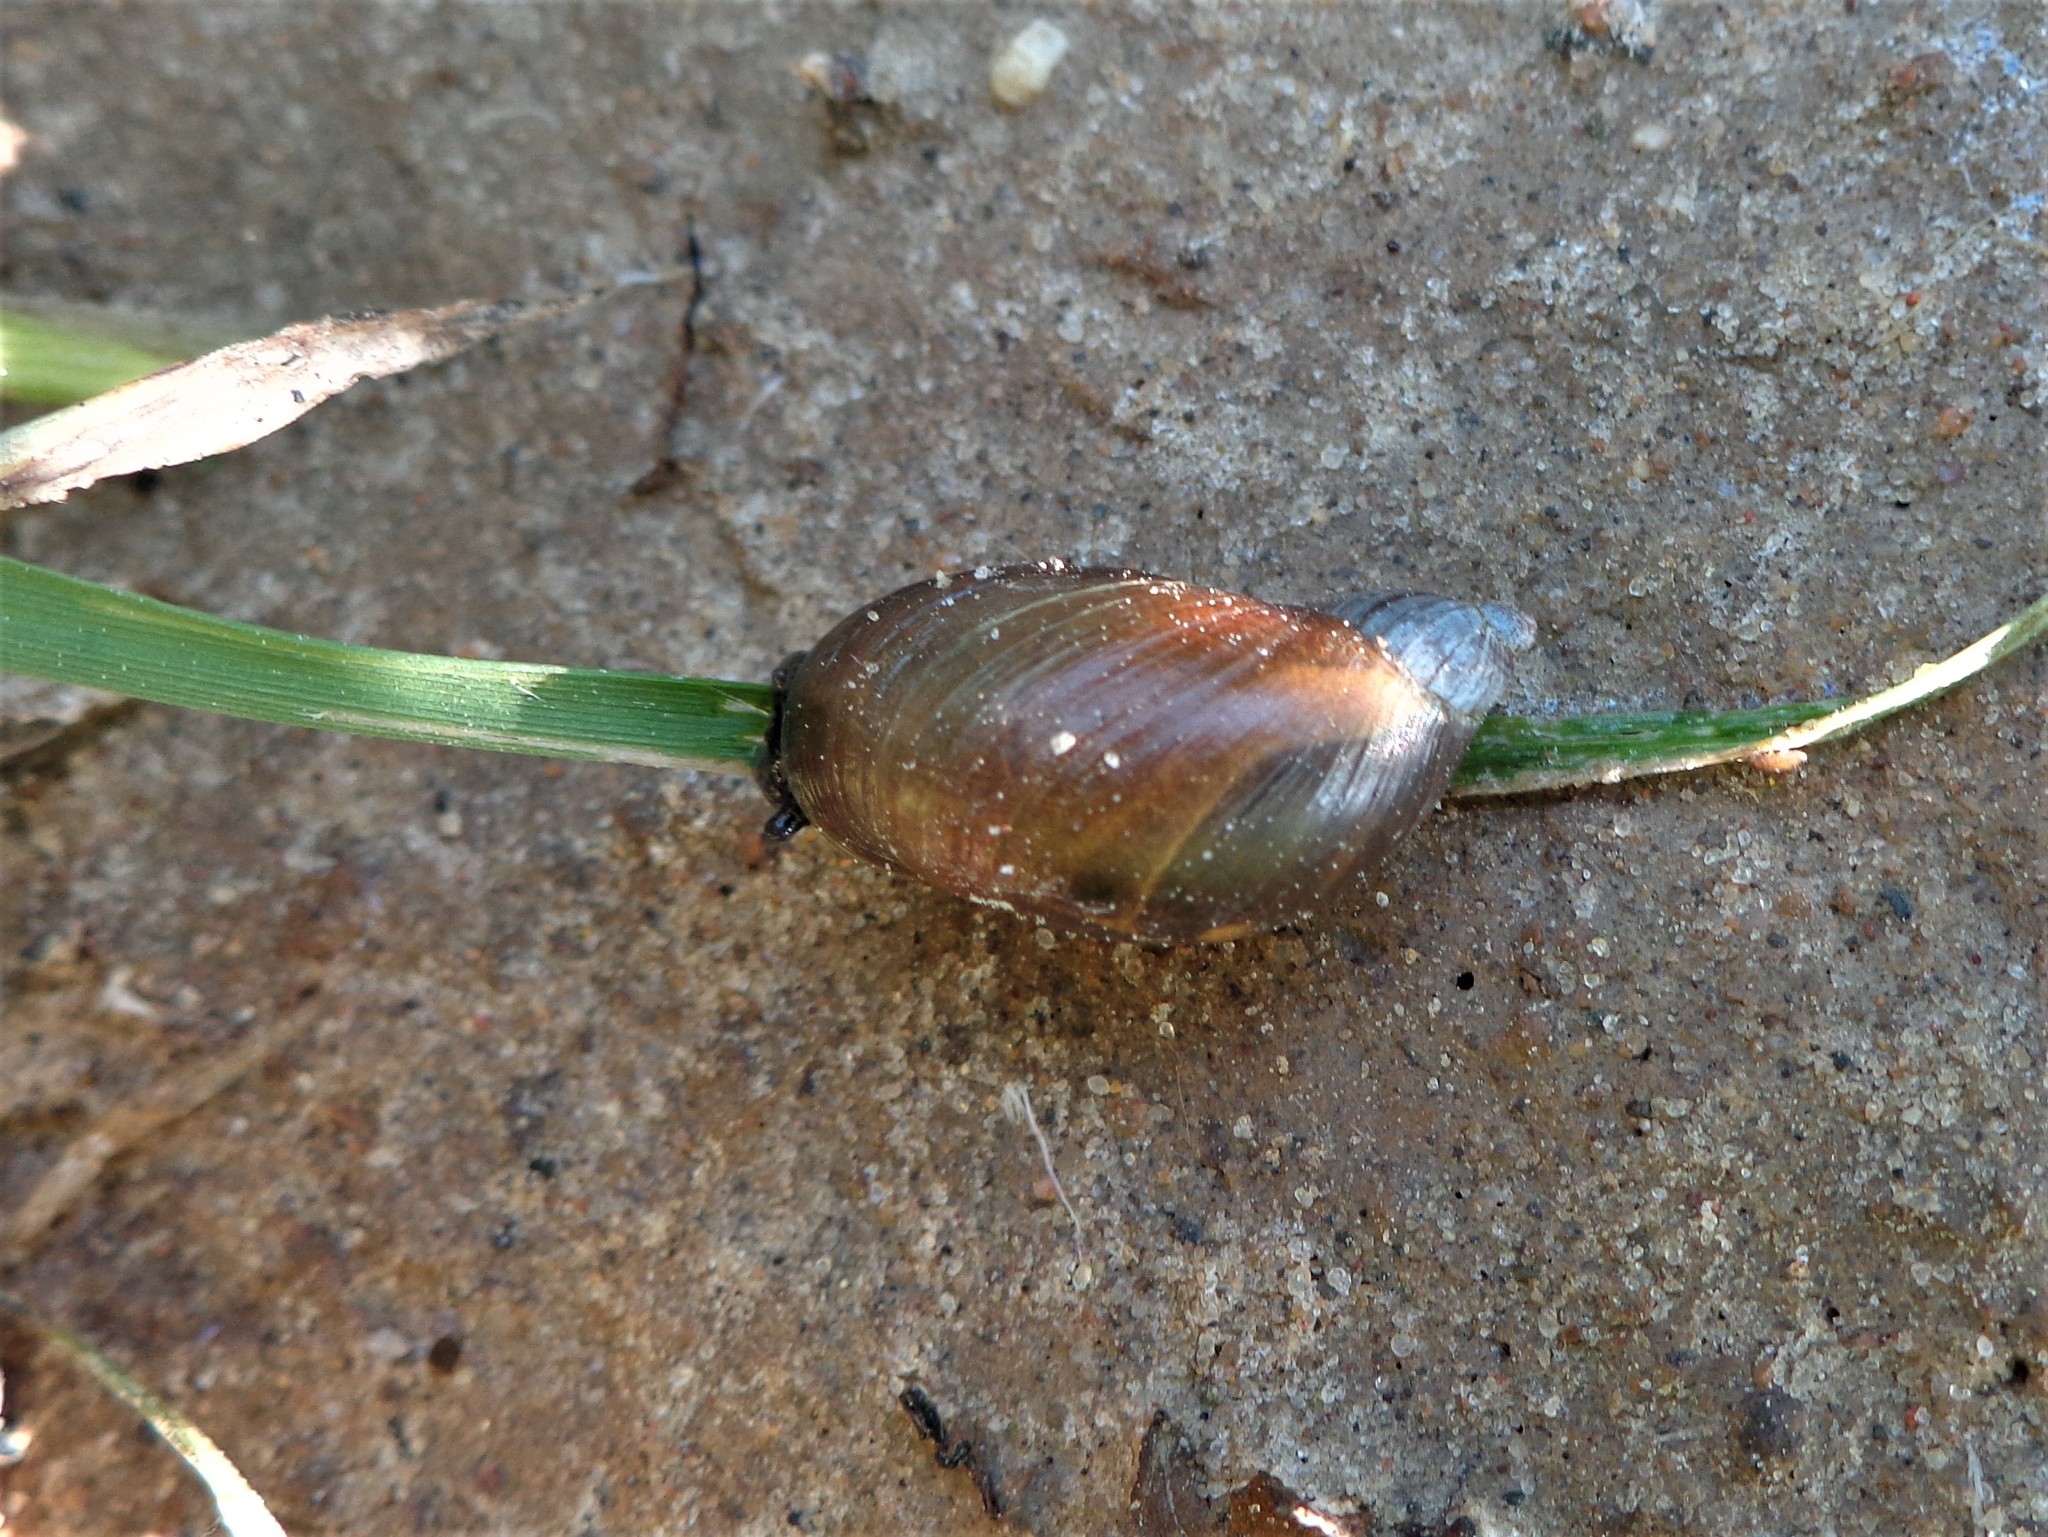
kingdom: Animalia
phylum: Mollusca
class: Gastropoda
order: Stylommatophora
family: Succineidae
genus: Succinea
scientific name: Succinea putris
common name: European ambersnail
